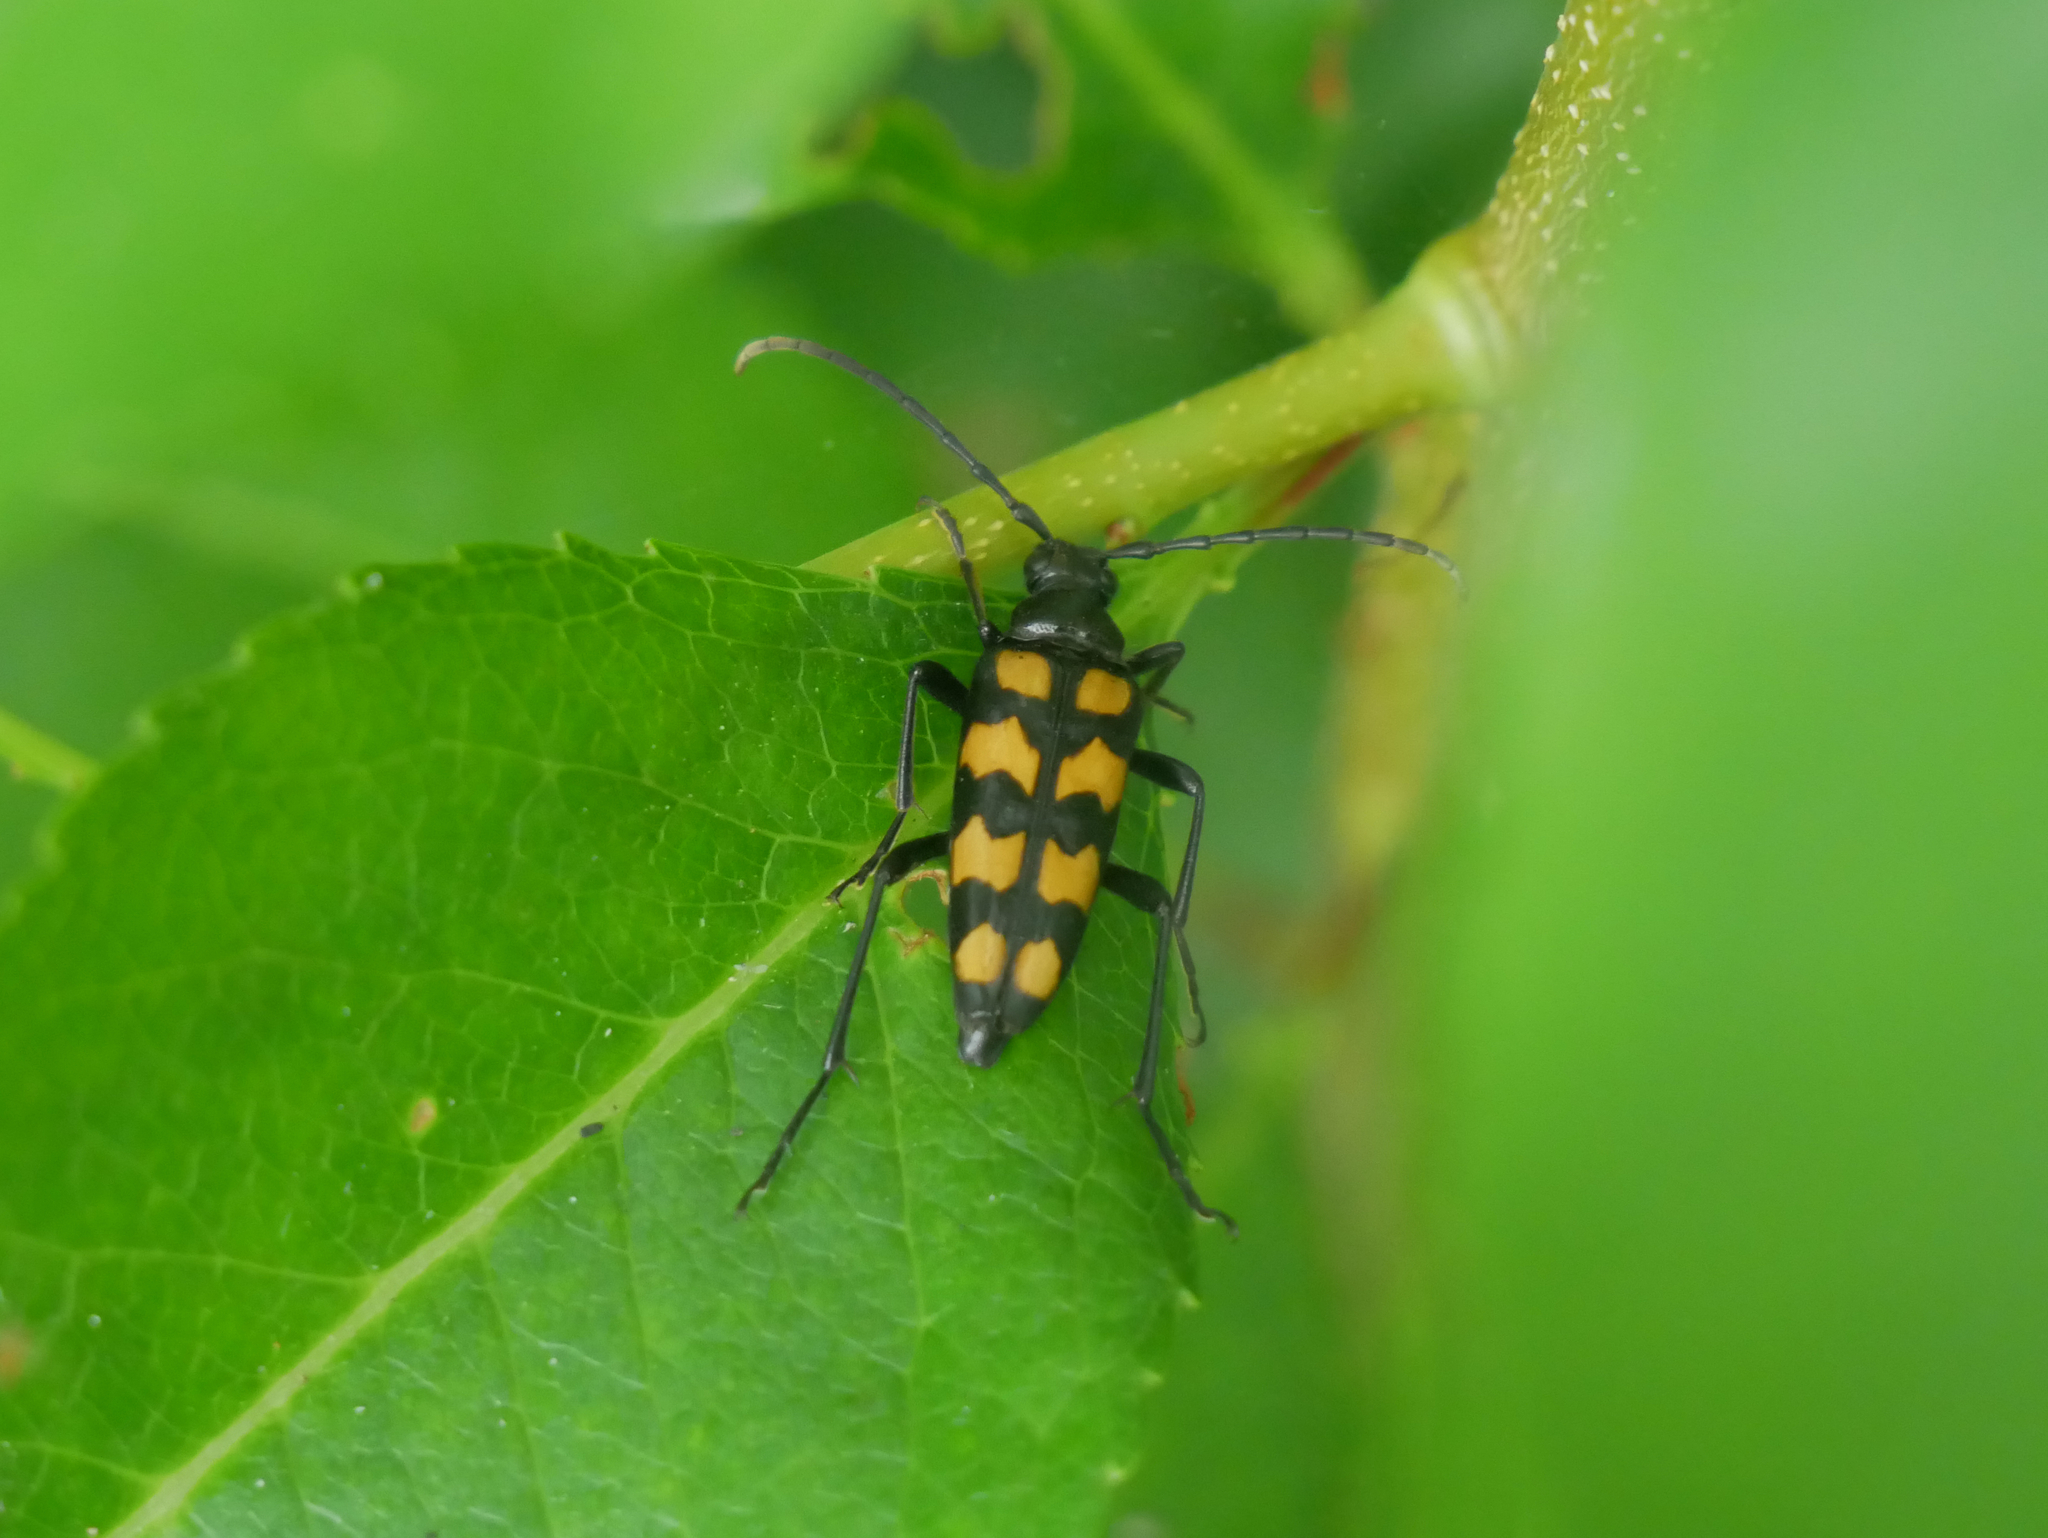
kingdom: Animalia
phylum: Arthropoda
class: Insecta
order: Coleoptera
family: Cerambycidae
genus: Leptura
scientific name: Leptura quadrifasciata
